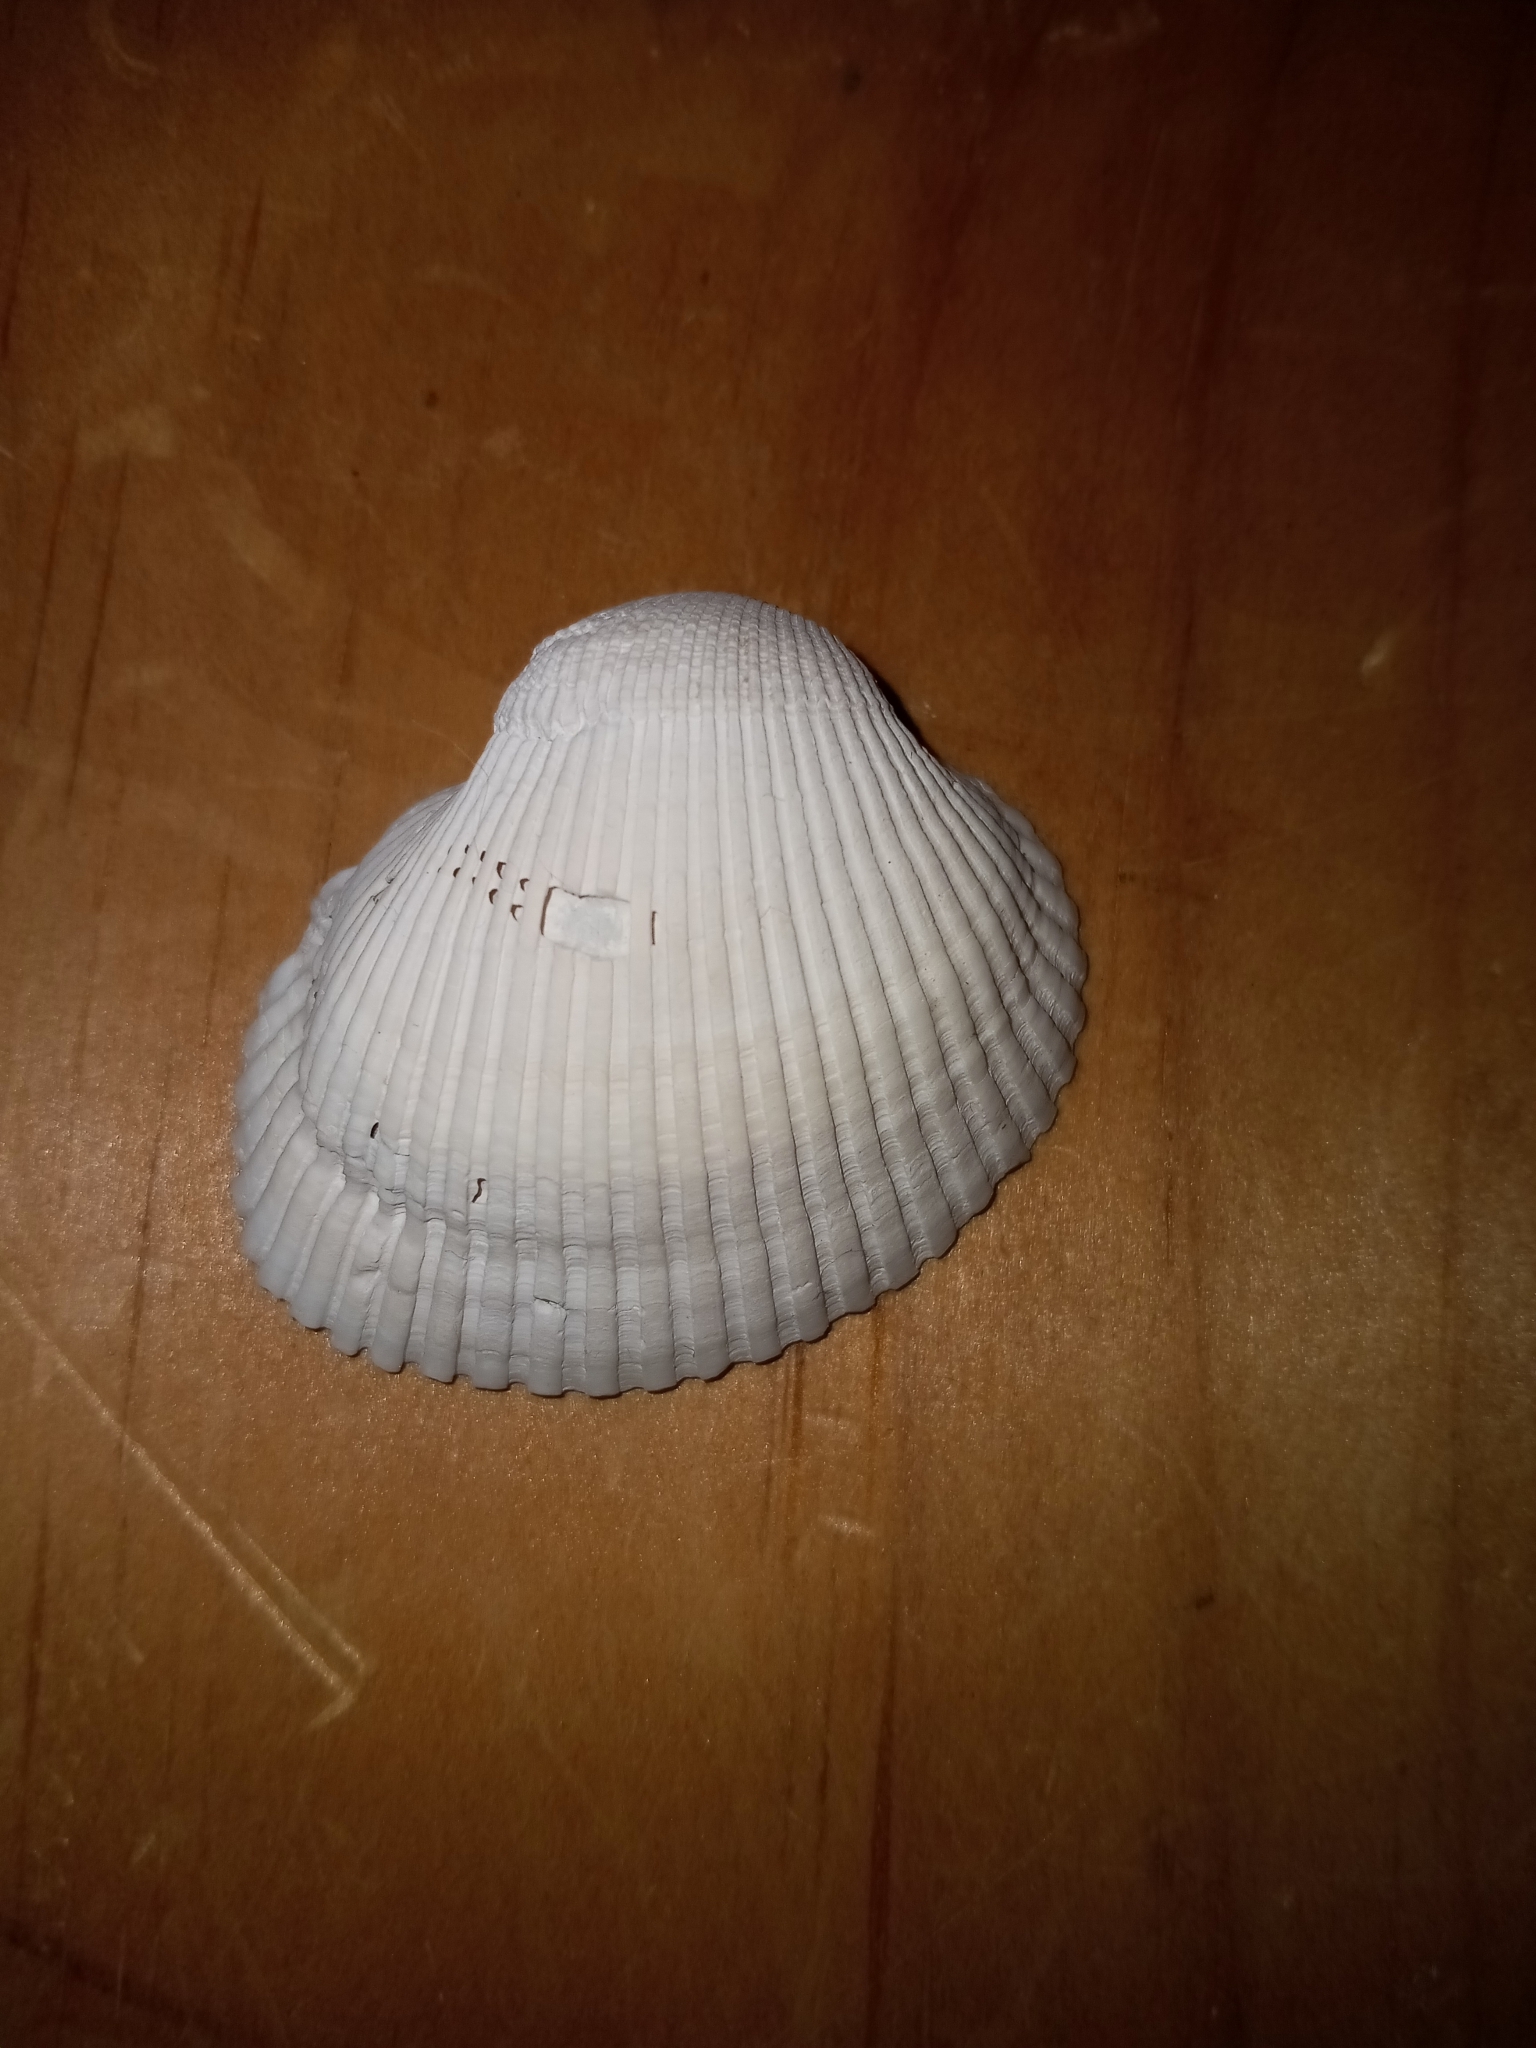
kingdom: Animalia
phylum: Mollusca
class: Bivalvia
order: Arcida
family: Arcidae
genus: Lunarca
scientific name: Lunarca ovalis
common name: Blood ark
